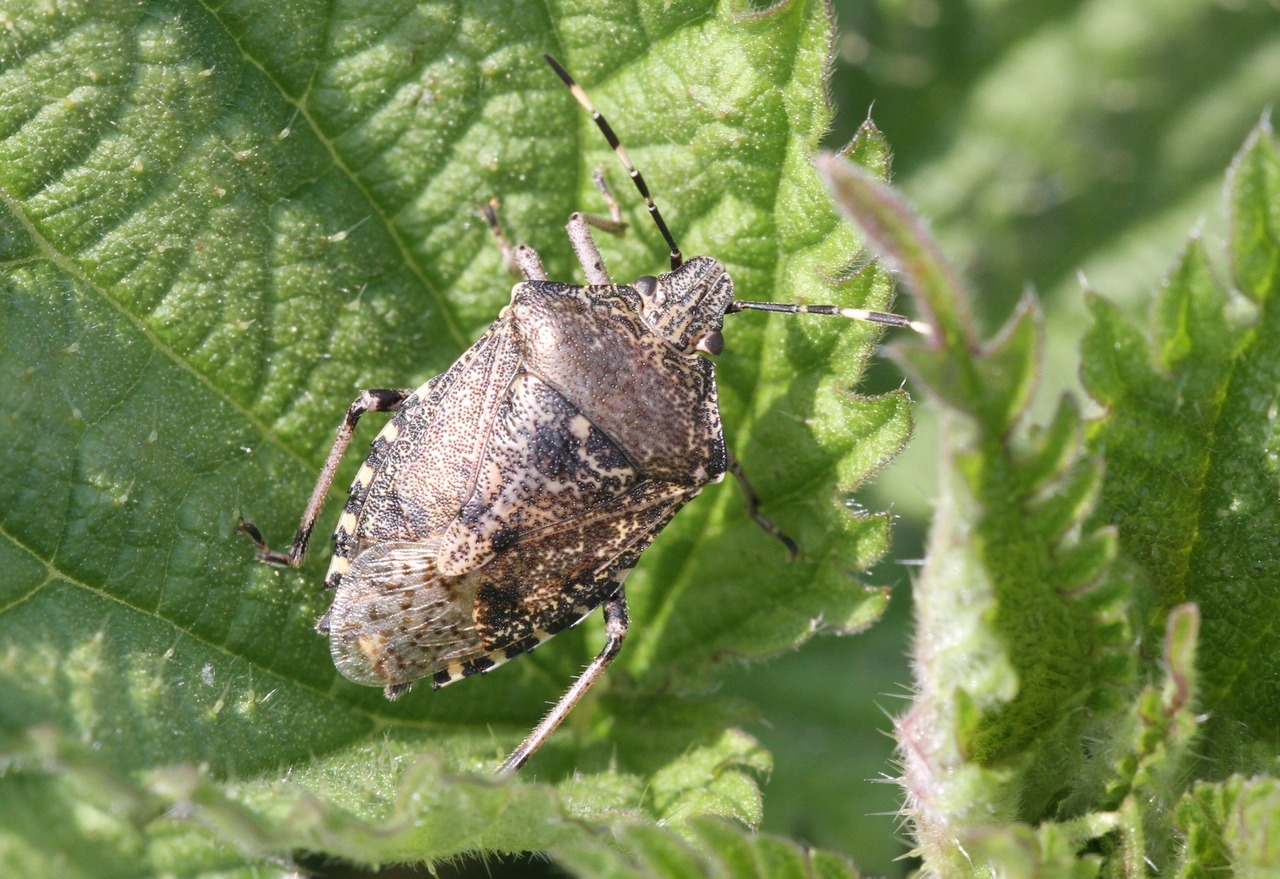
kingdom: Animalia
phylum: Arthropoda
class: Insecta
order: Hemiptera
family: Pentatomidae
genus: Rhaphigaster
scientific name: Rhaphigaster nebulosa
